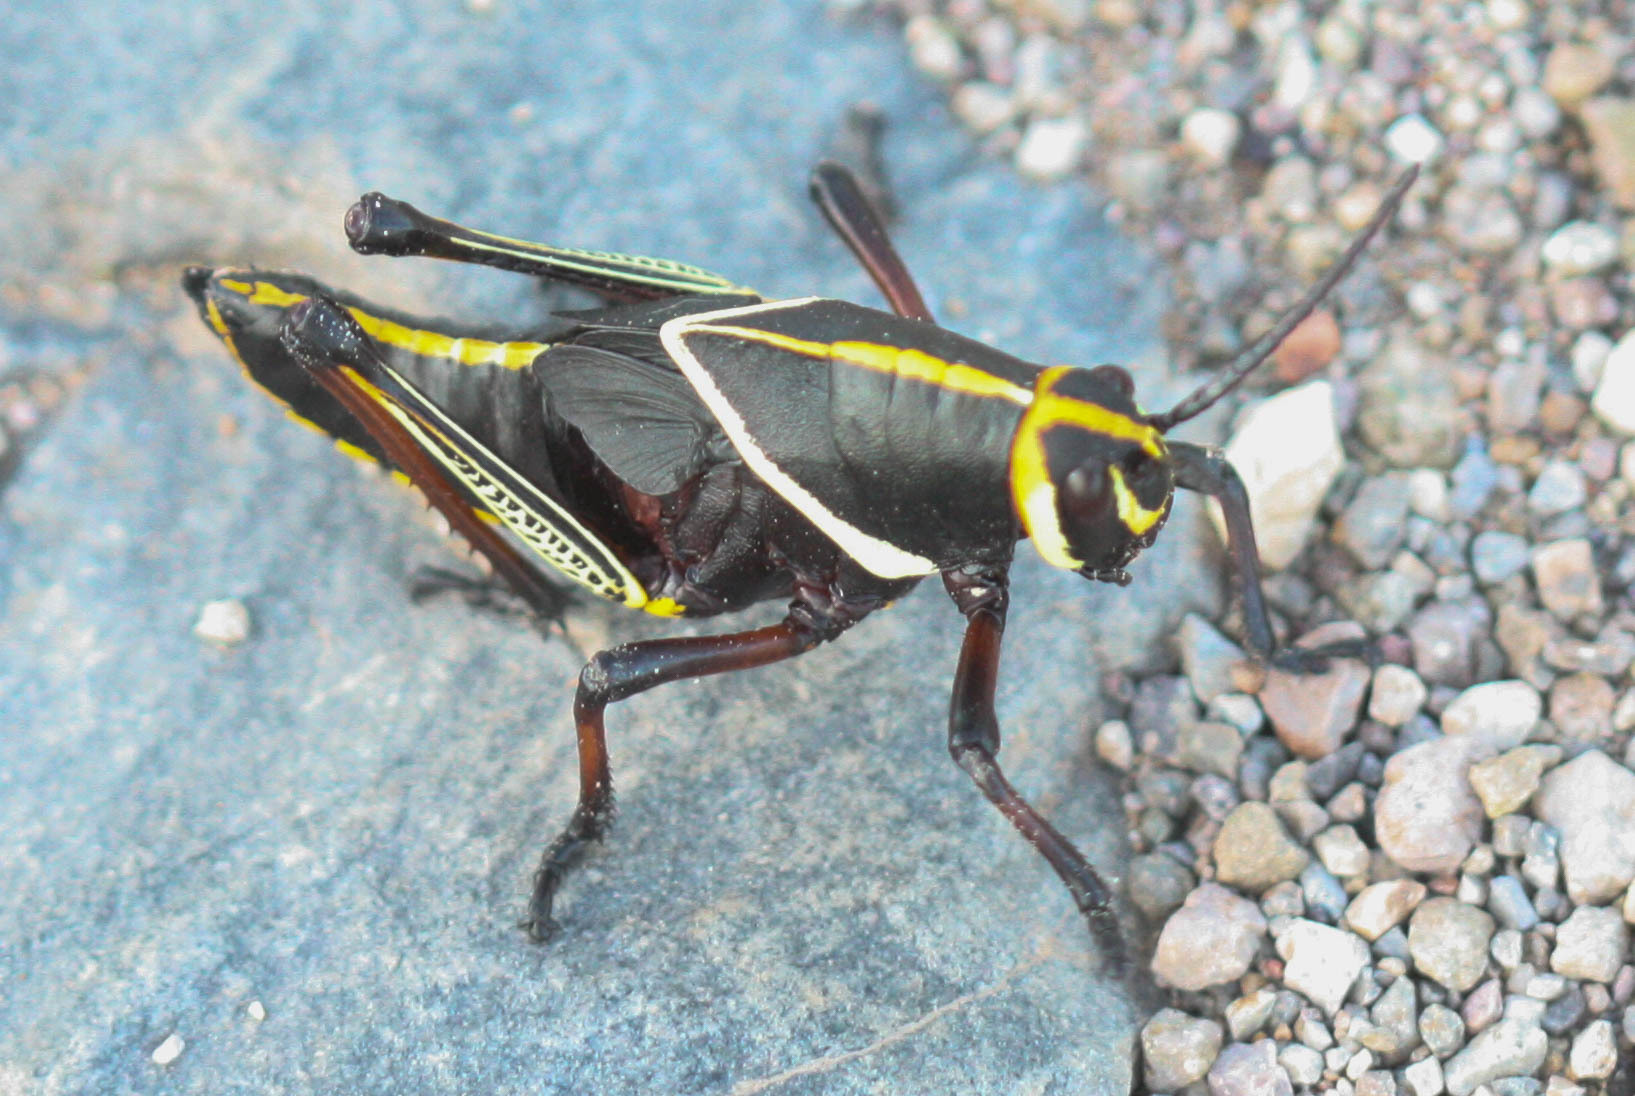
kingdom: Animalia
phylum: Arthropoda
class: Insecta
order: Orthoptera
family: Romaleidae
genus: Romalea
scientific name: Romalea
